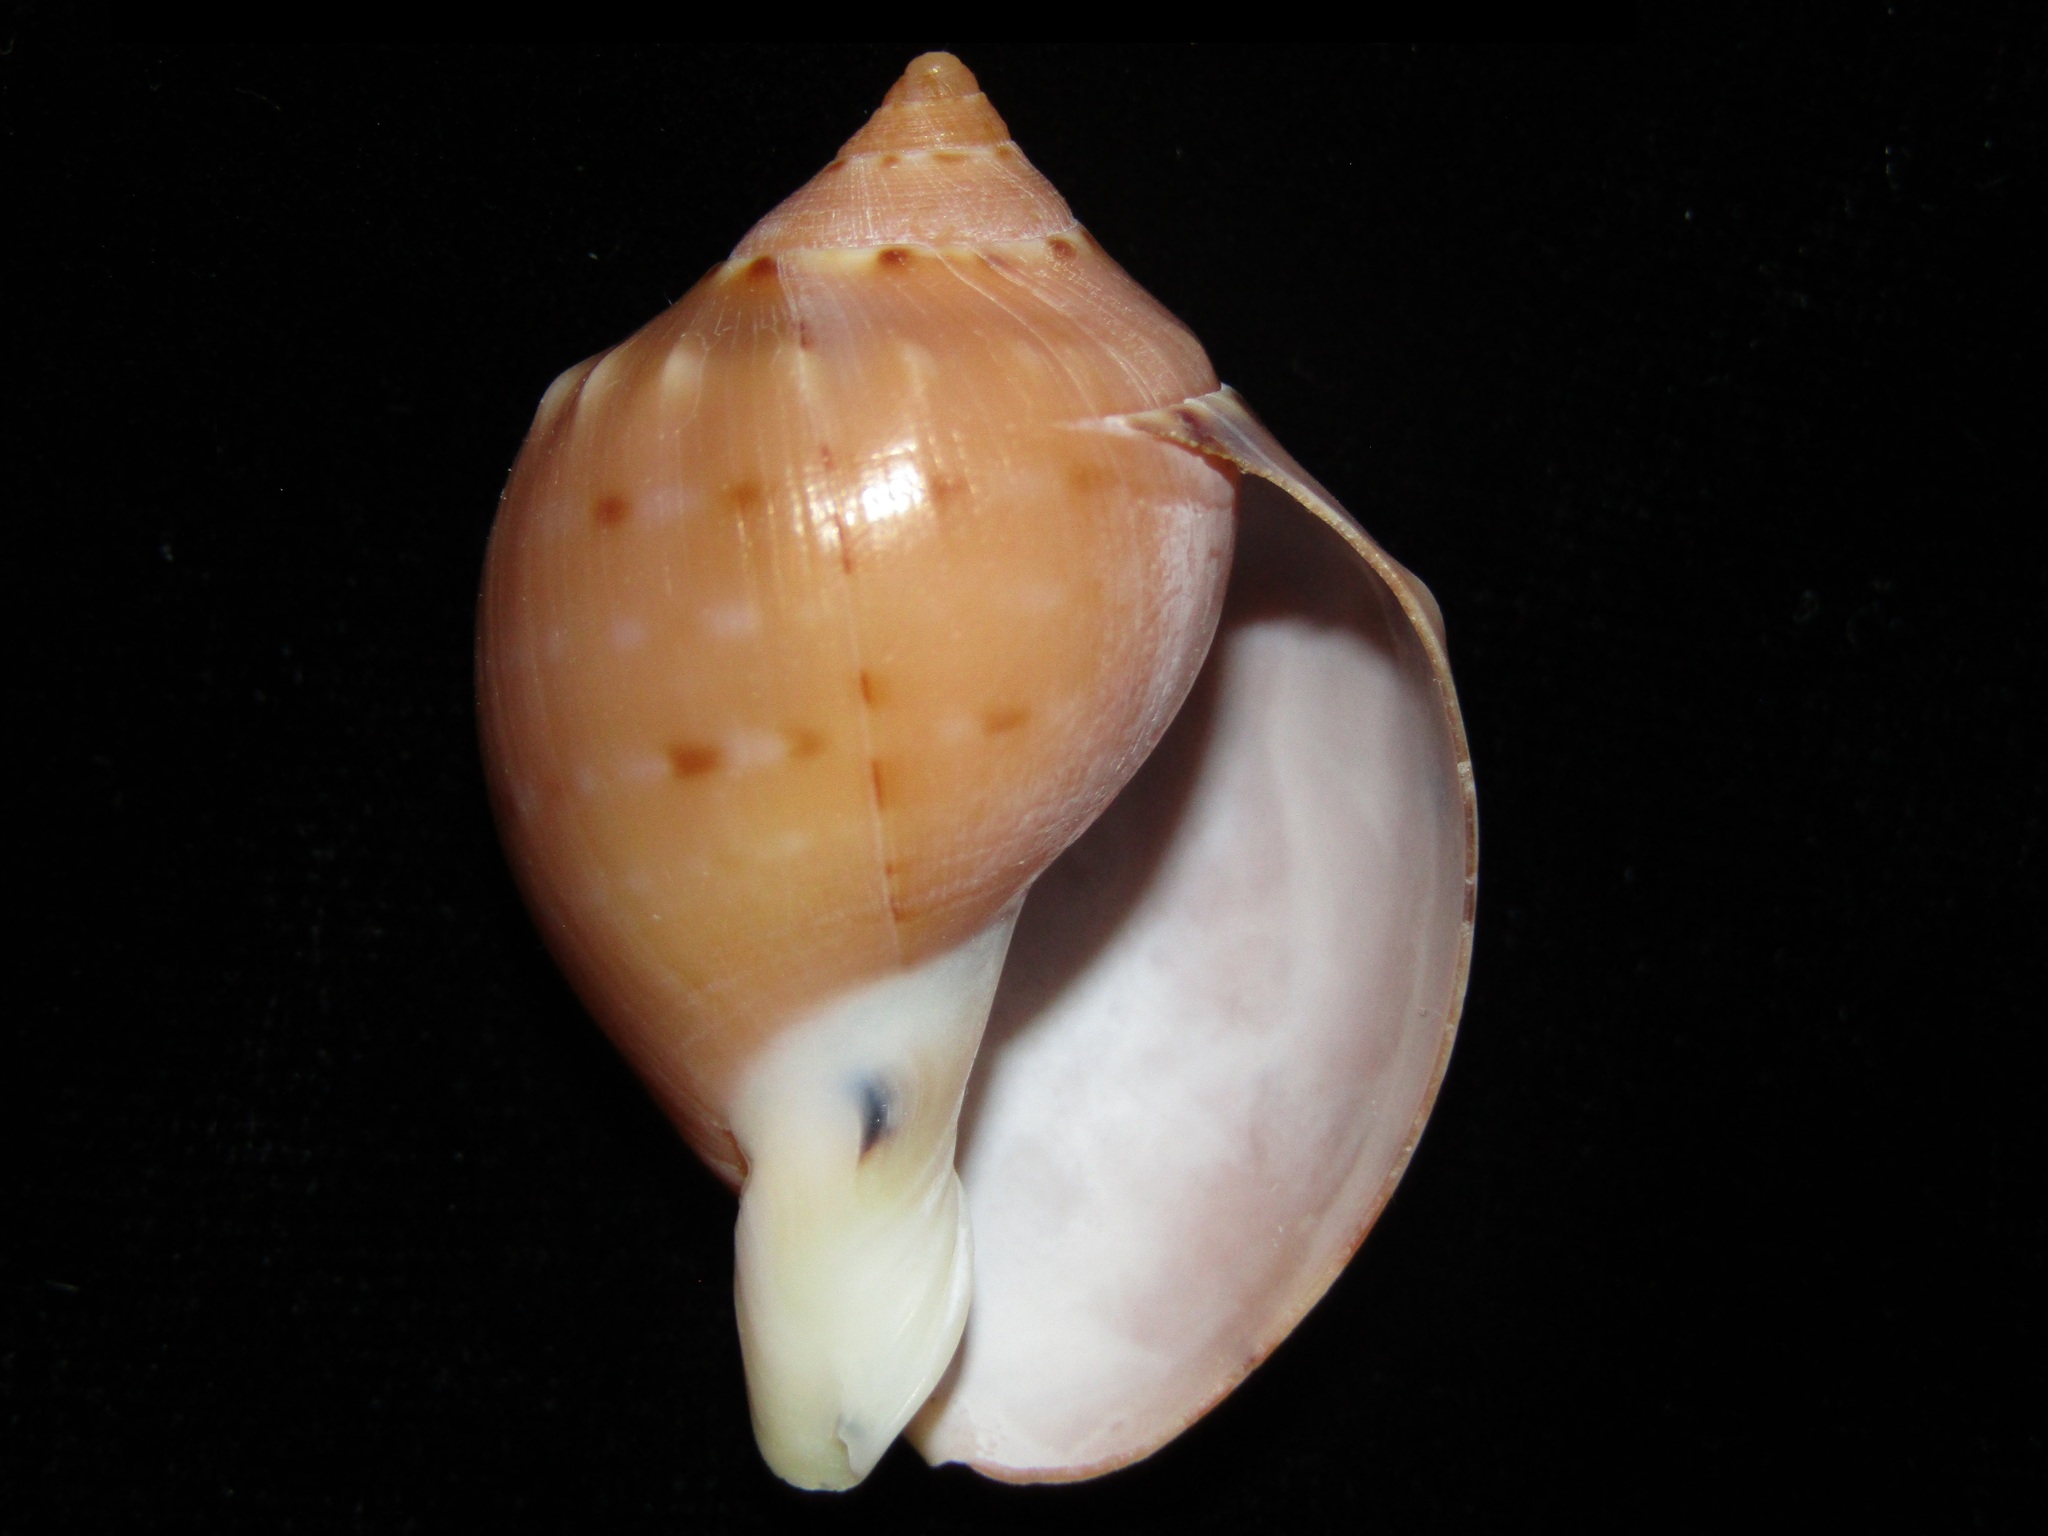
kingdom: Animalia
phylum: Mollusca
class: Gastropoda
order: Littorinimorpha
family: Cassidae
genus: Semicassis
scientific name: Semicassis labiata
